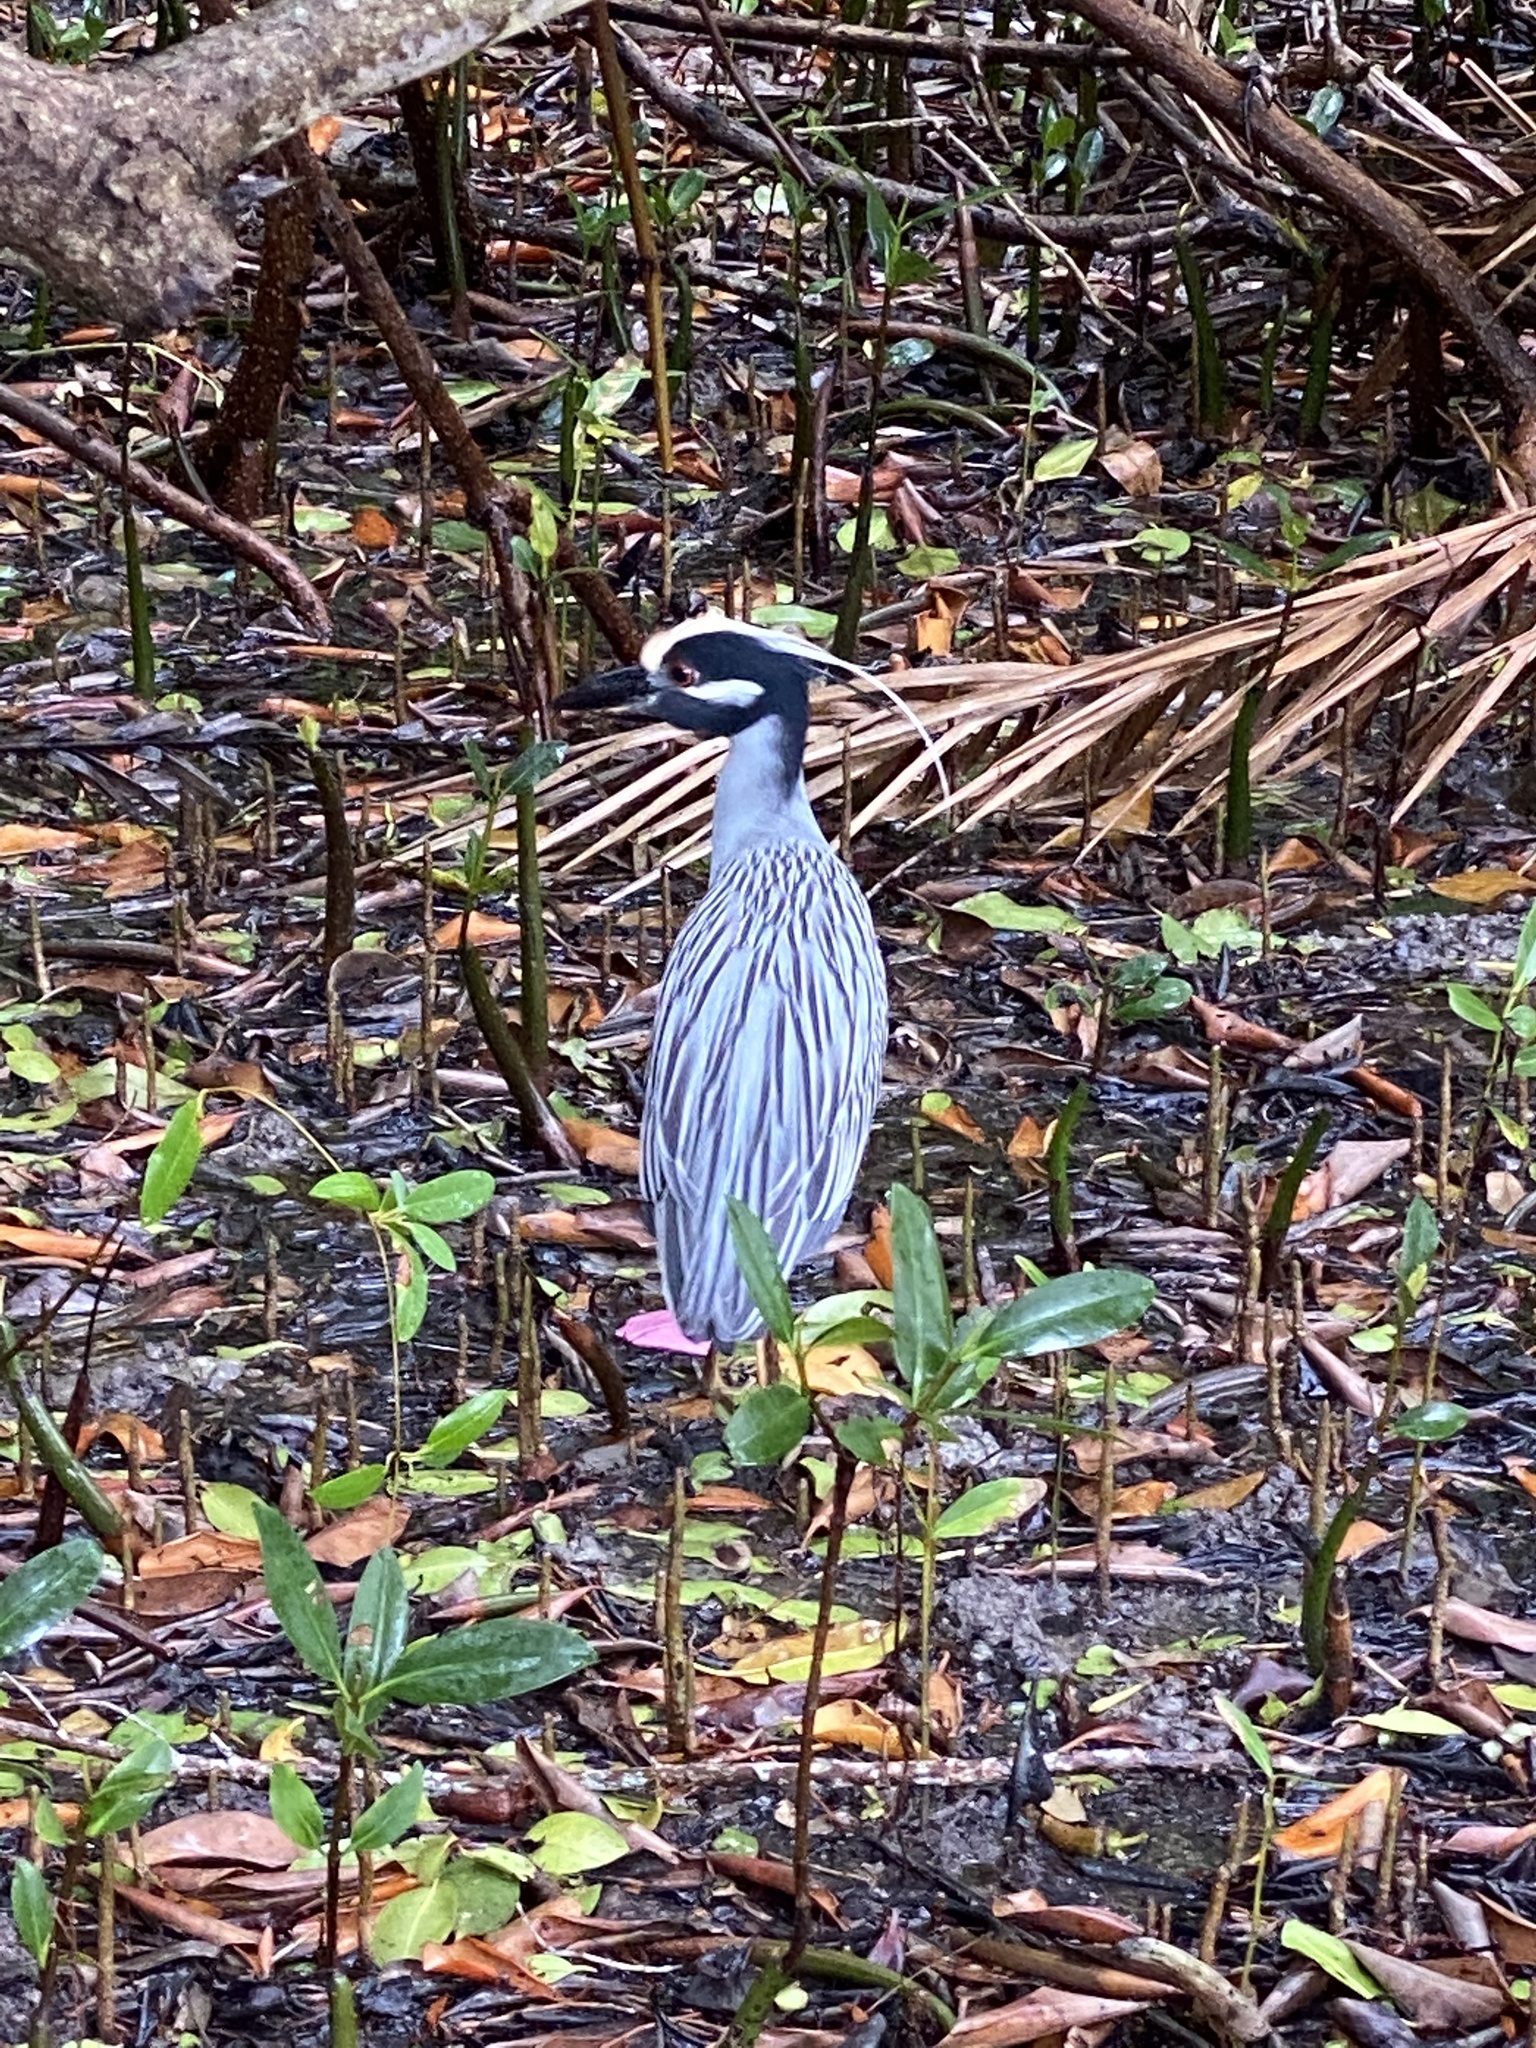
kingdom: Animalia
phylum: Chordata
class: Aves
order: Pelecaniformes
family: Ardeidae
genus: Nyctanassa
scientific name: Nyctanassa violacea
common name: Yellow-crowned night heron
